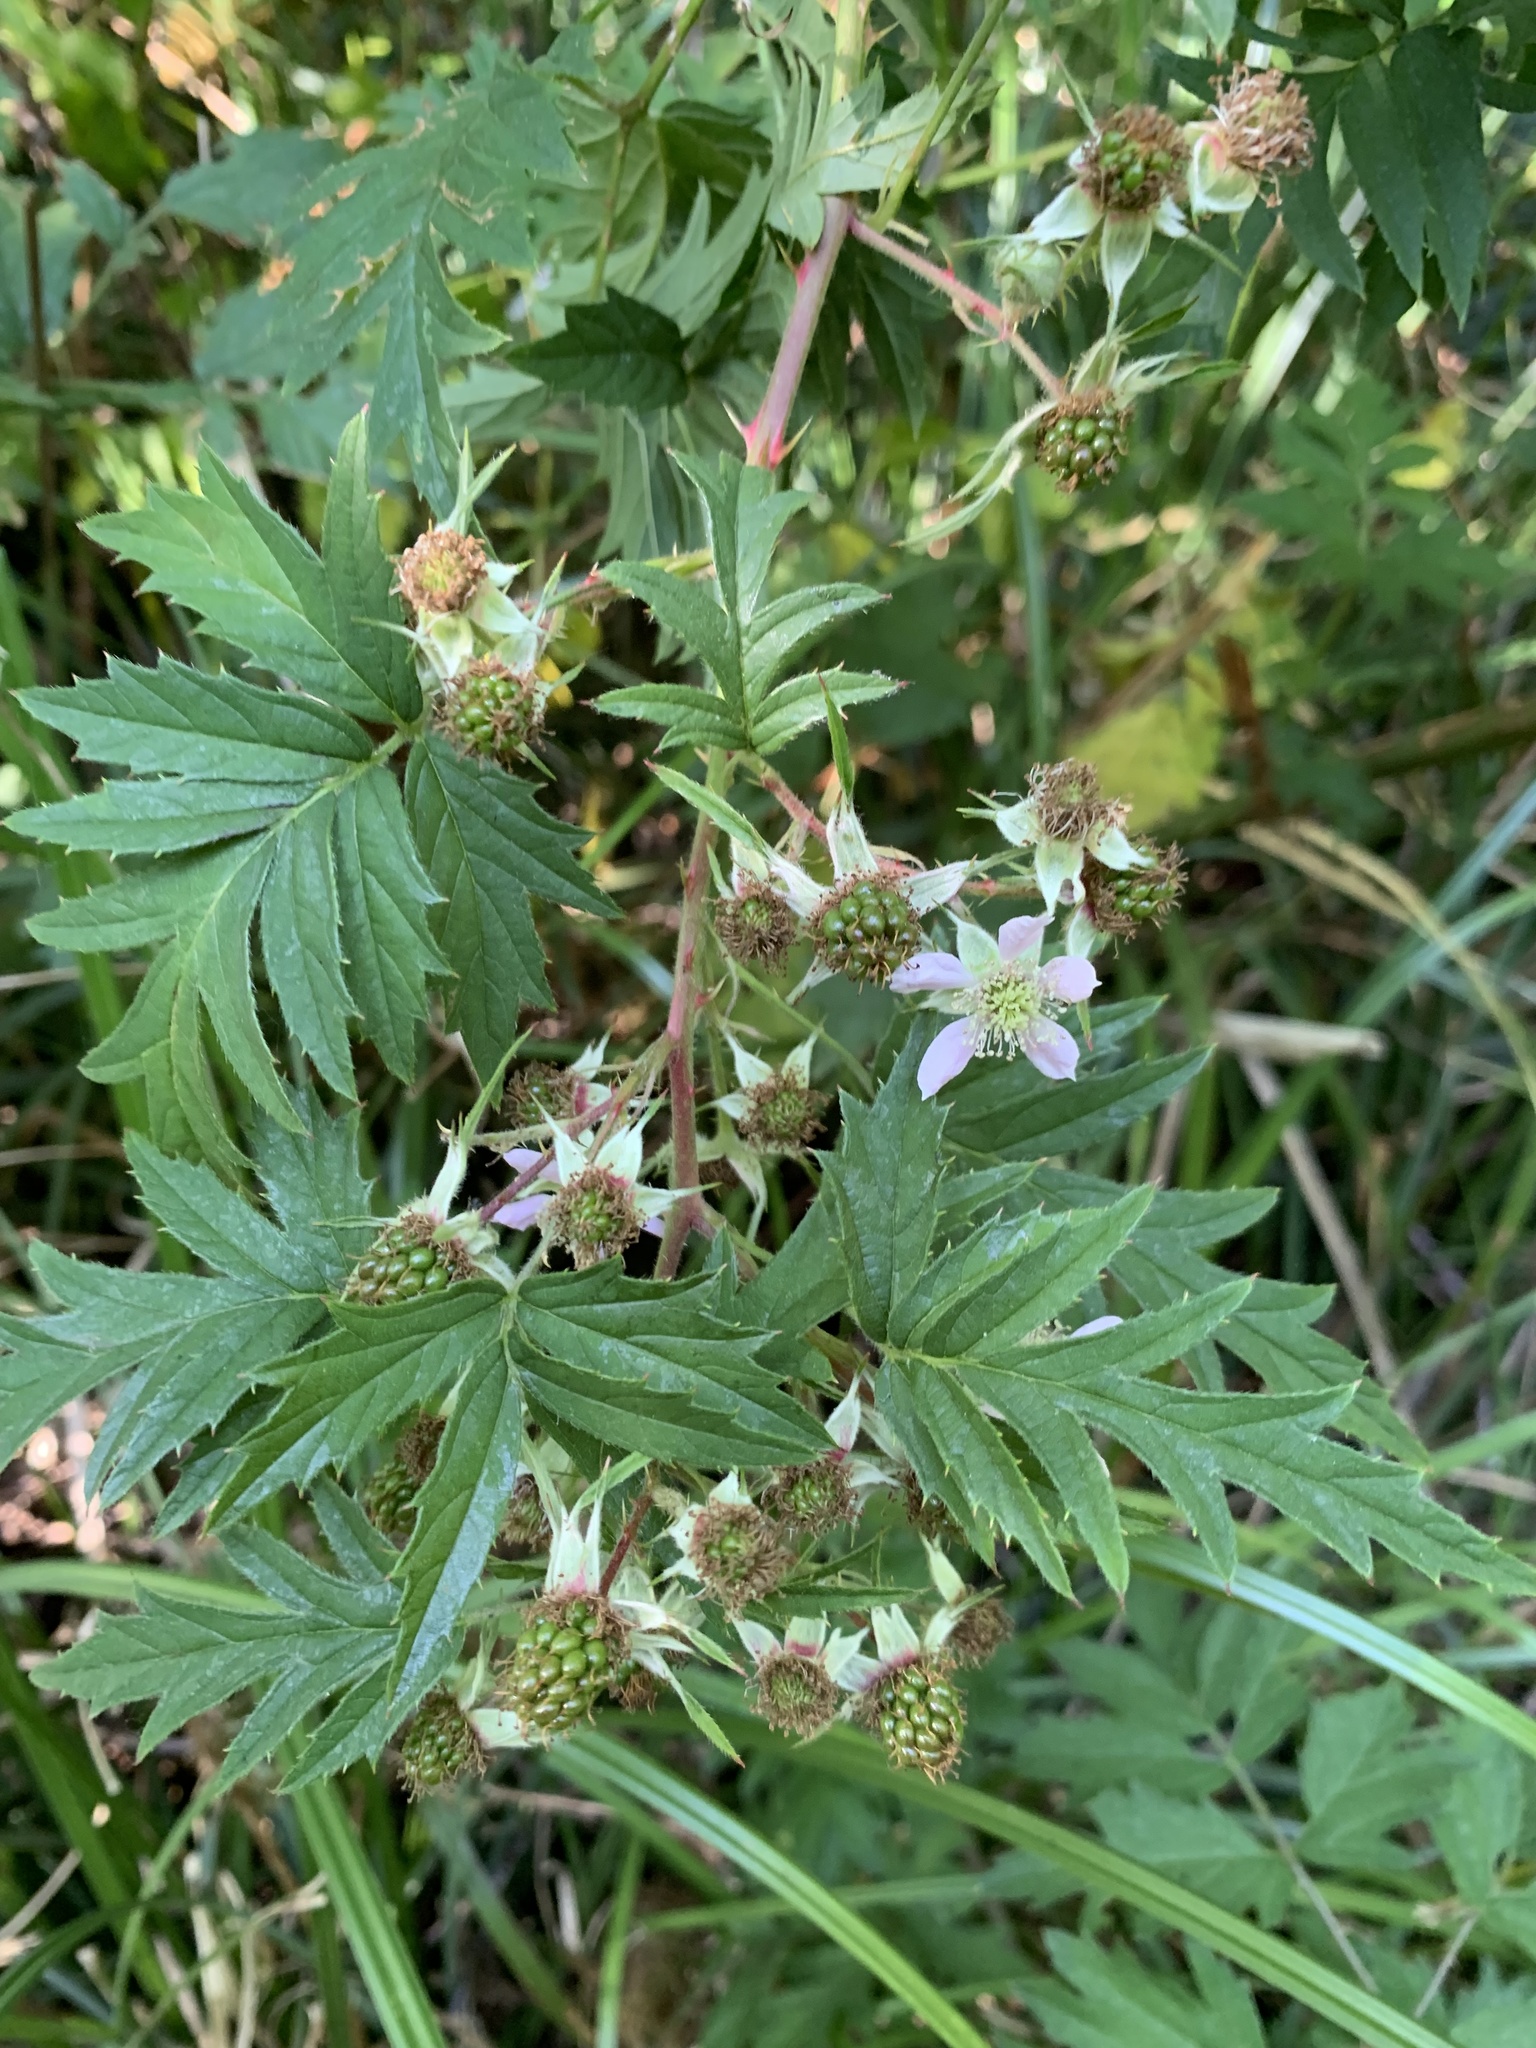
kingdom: Plantae
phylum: Tracheophyta
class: Magnoliopsida
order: Rosales
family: Rosaceae
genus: Rubus
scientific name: Rubus laciniatus
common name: Evergreen blackberry
